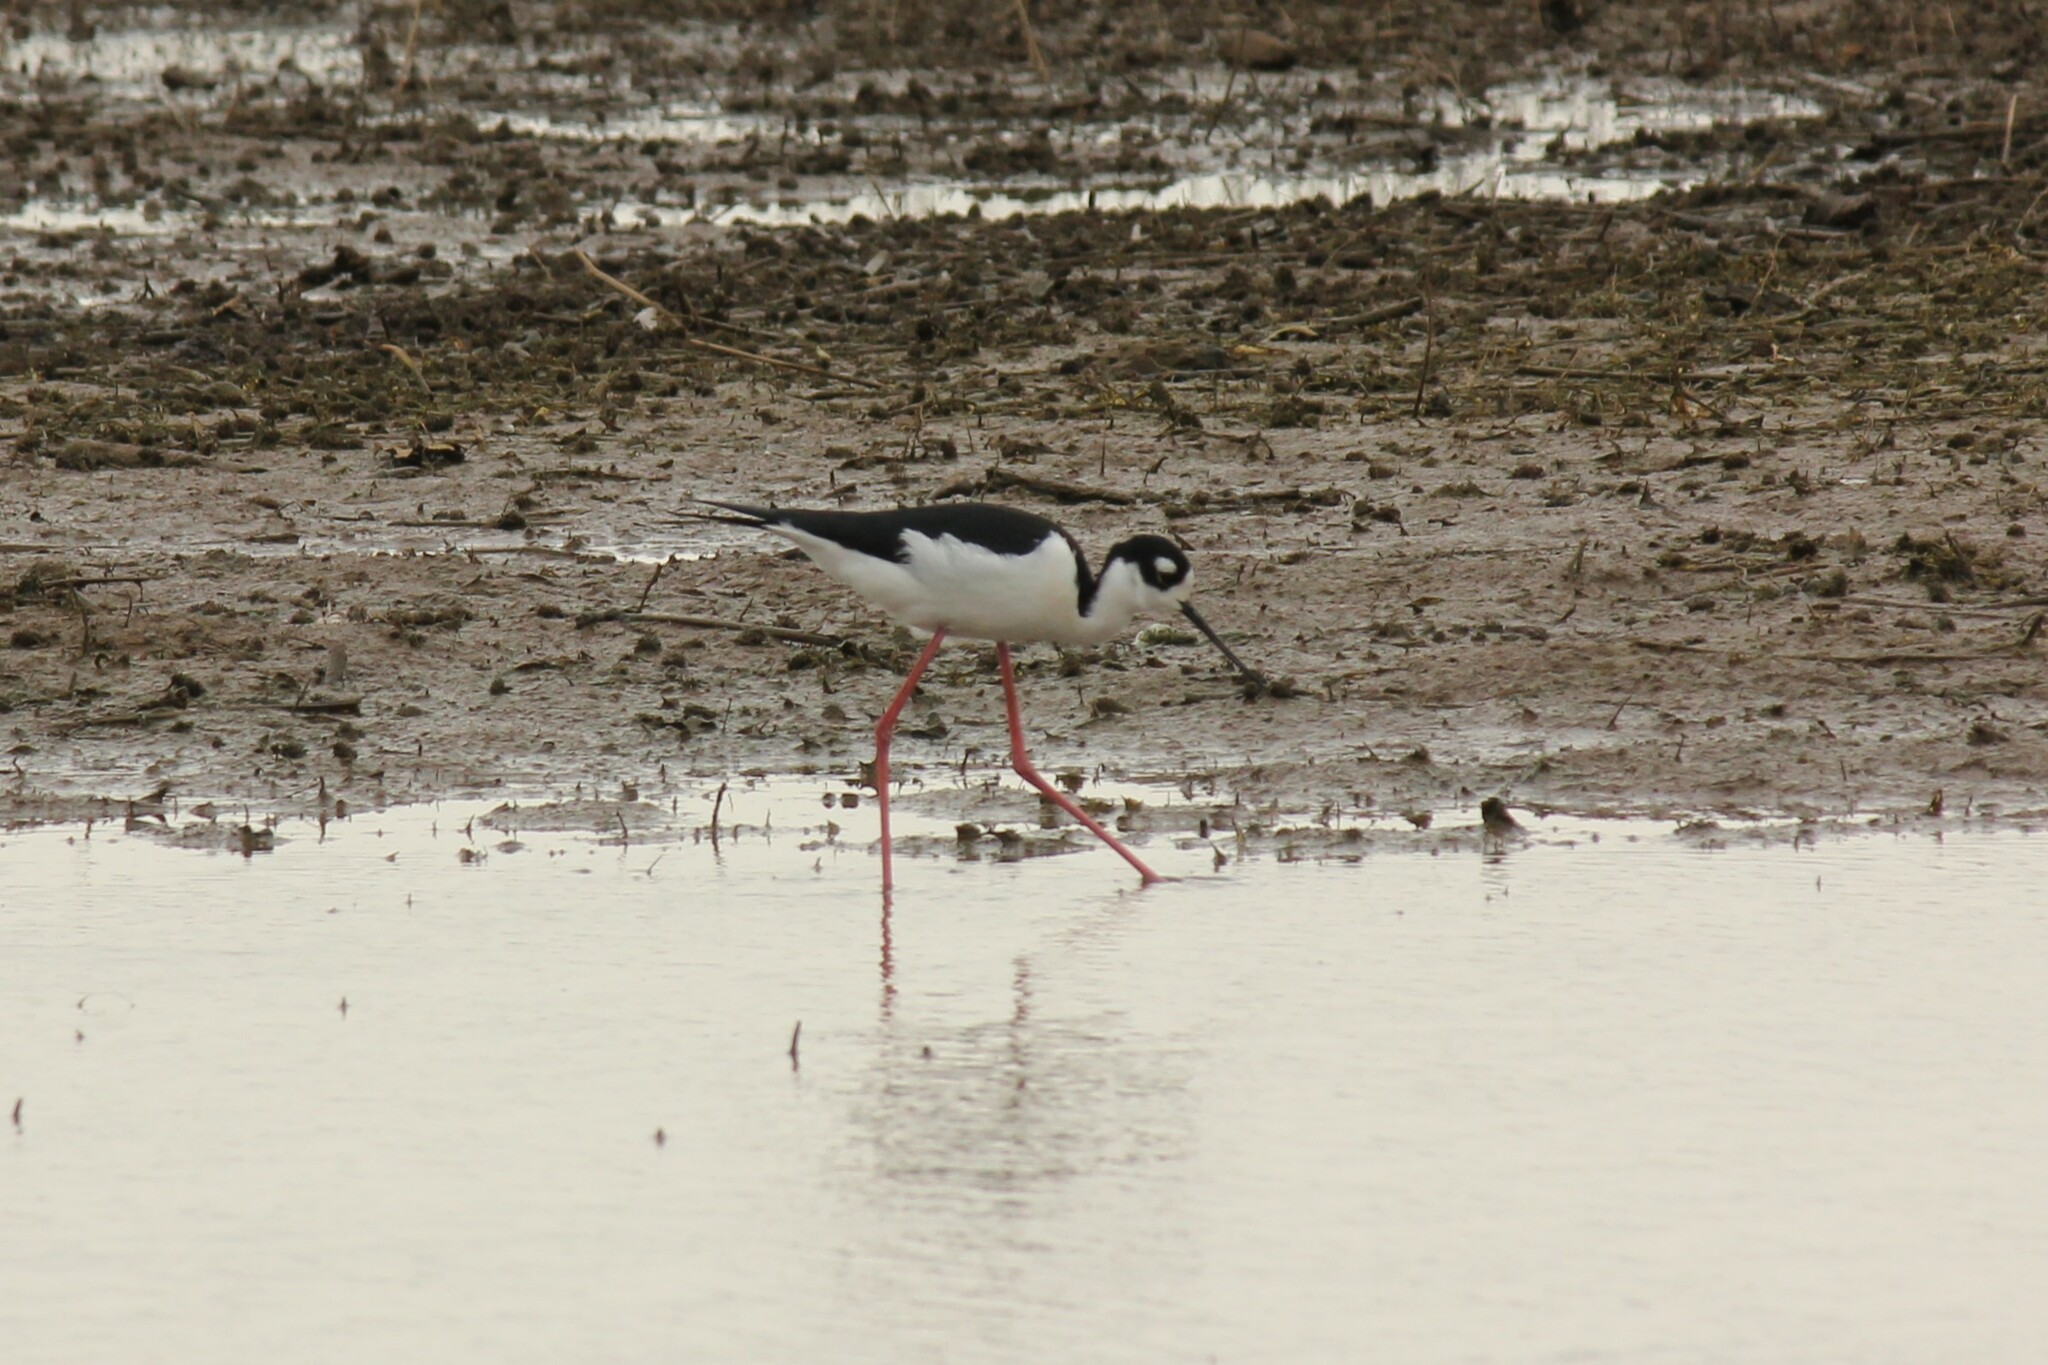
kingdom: Animalia
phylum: Chordata
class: Aves
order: Charadriiformes
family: Recurvirostridae
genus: Himantopus
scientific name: Himantopus mexicanus
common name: Black-necked stilt
